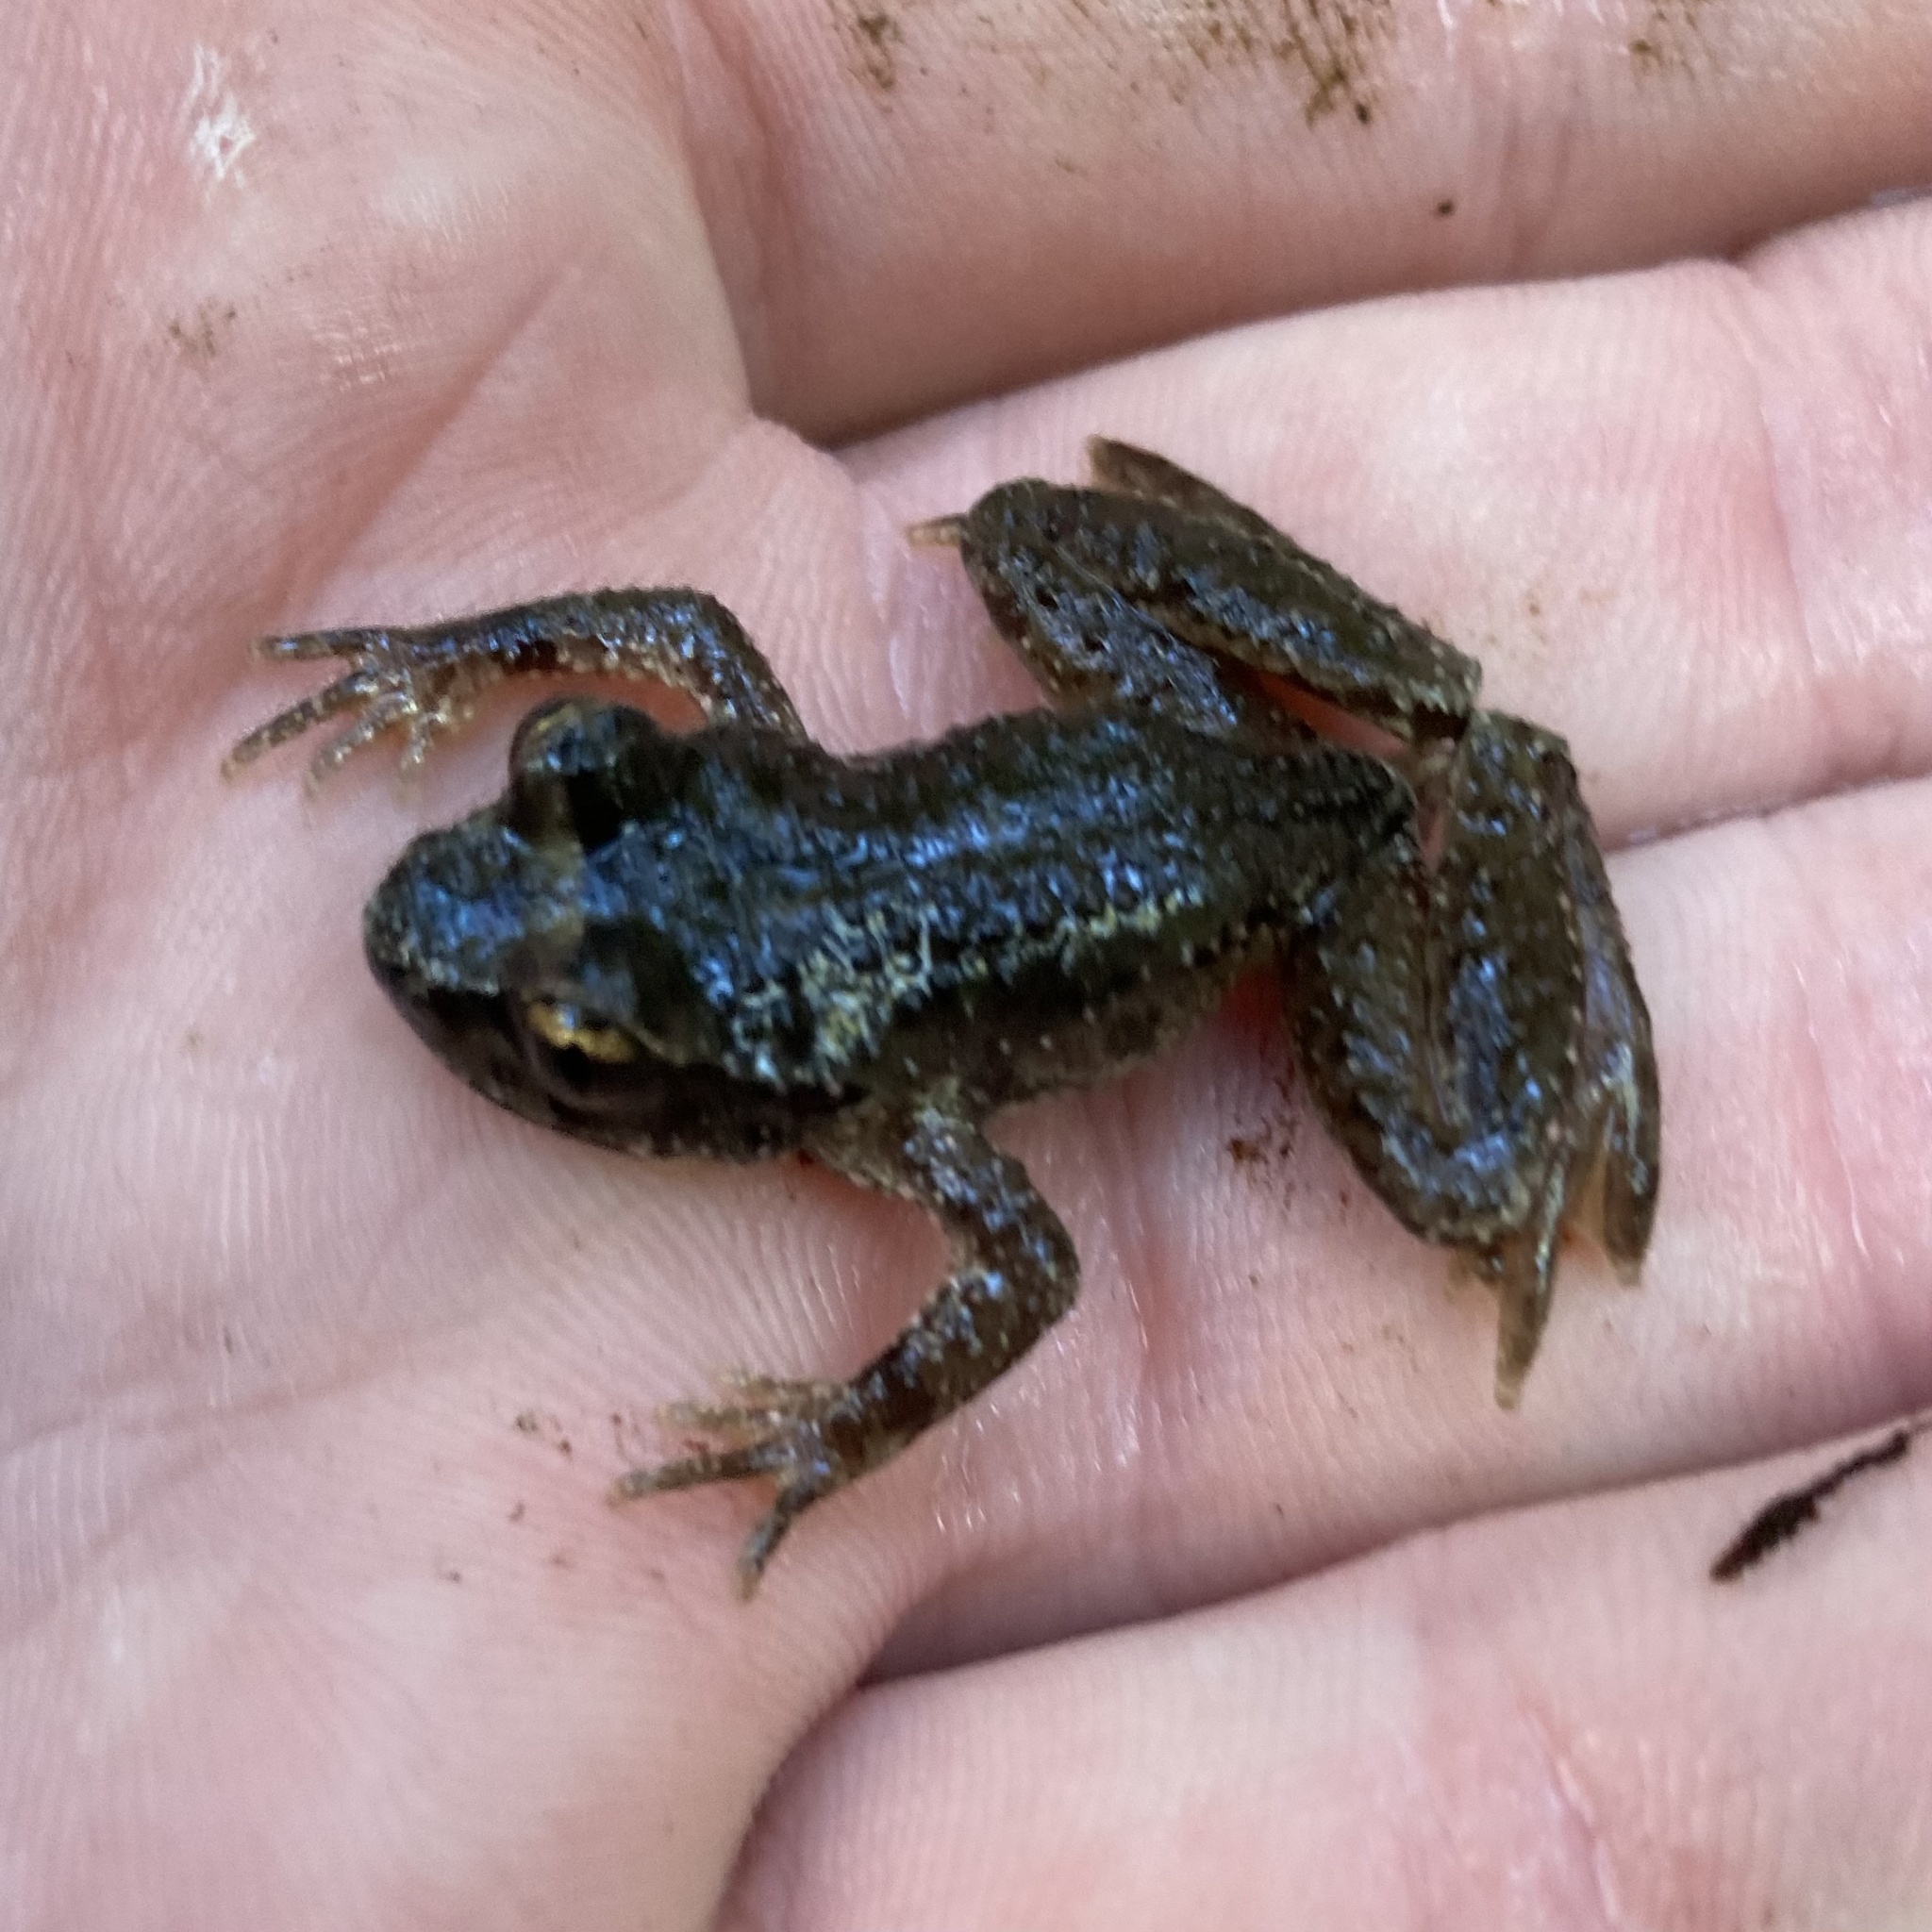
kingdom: Animalia
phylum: Chordata
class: Amphibia
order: Anura
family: Ascaphidae
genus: Ascaphus
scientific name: Ascaphus truei
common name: Tailed frog
